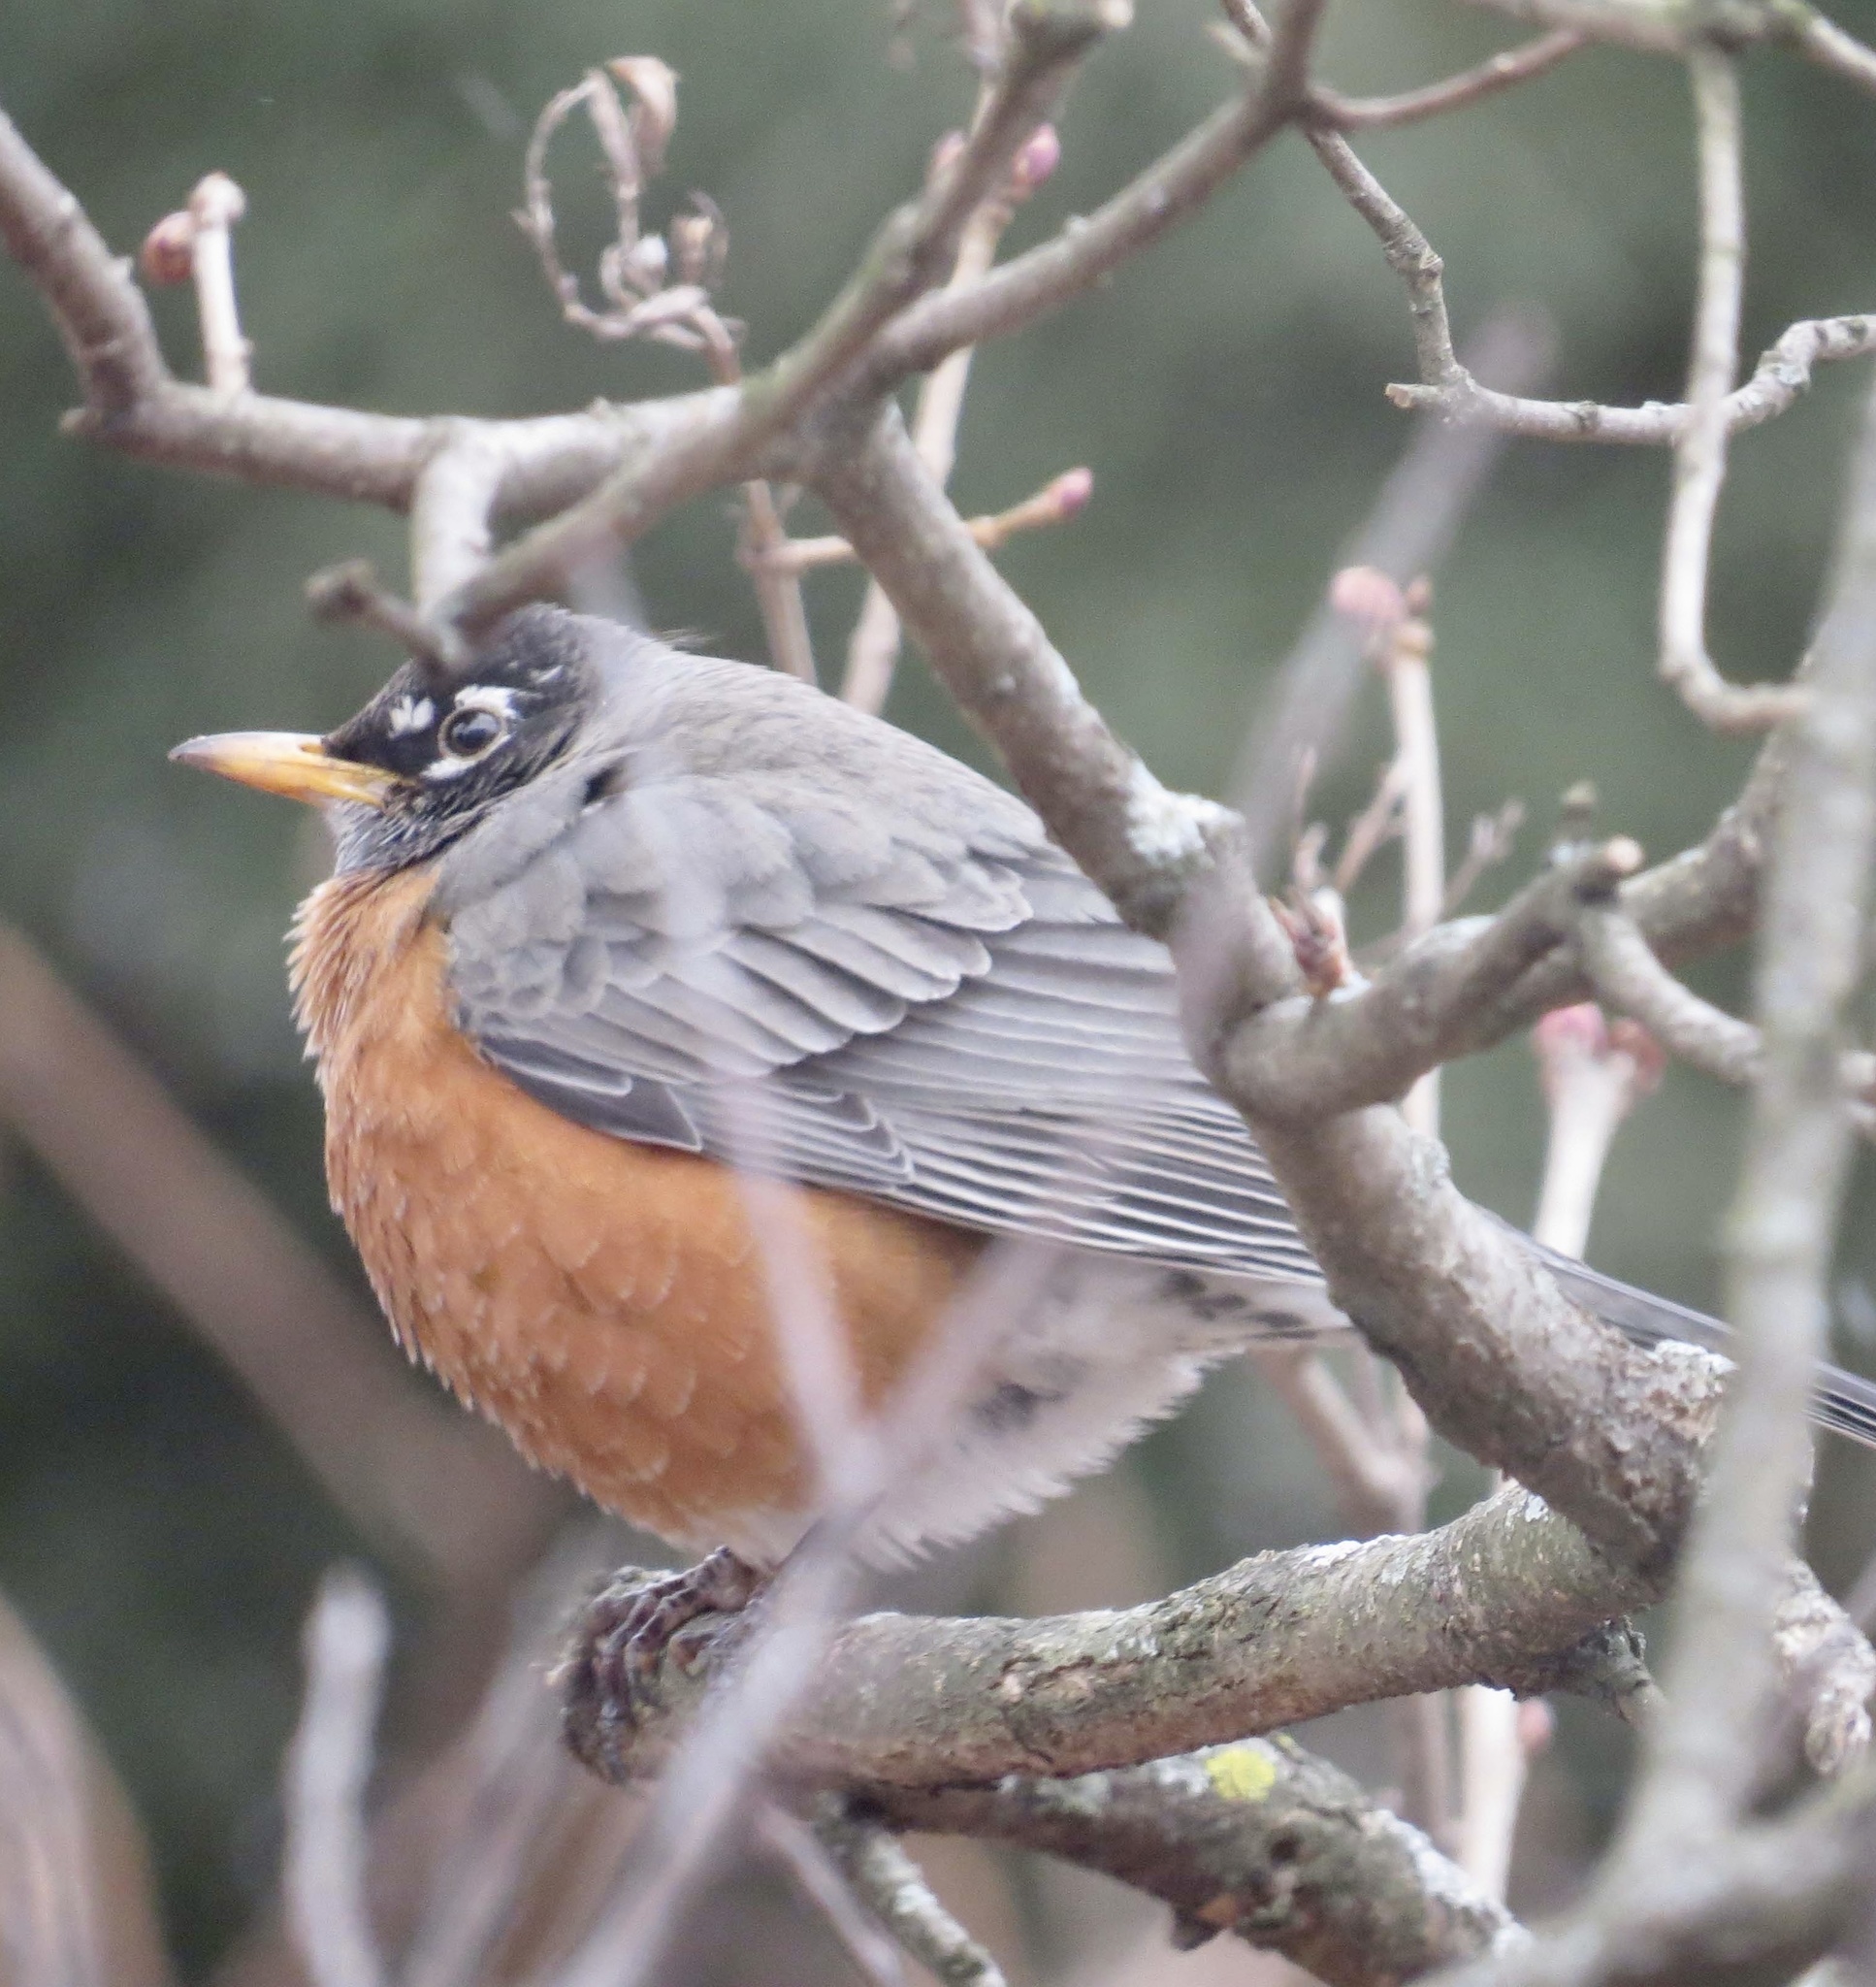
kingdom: Animalia
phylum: Chordata
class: Aves
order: Passeriformes
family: Turdidae
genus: Turdus
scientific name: Turdus migratorius
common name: American robin
